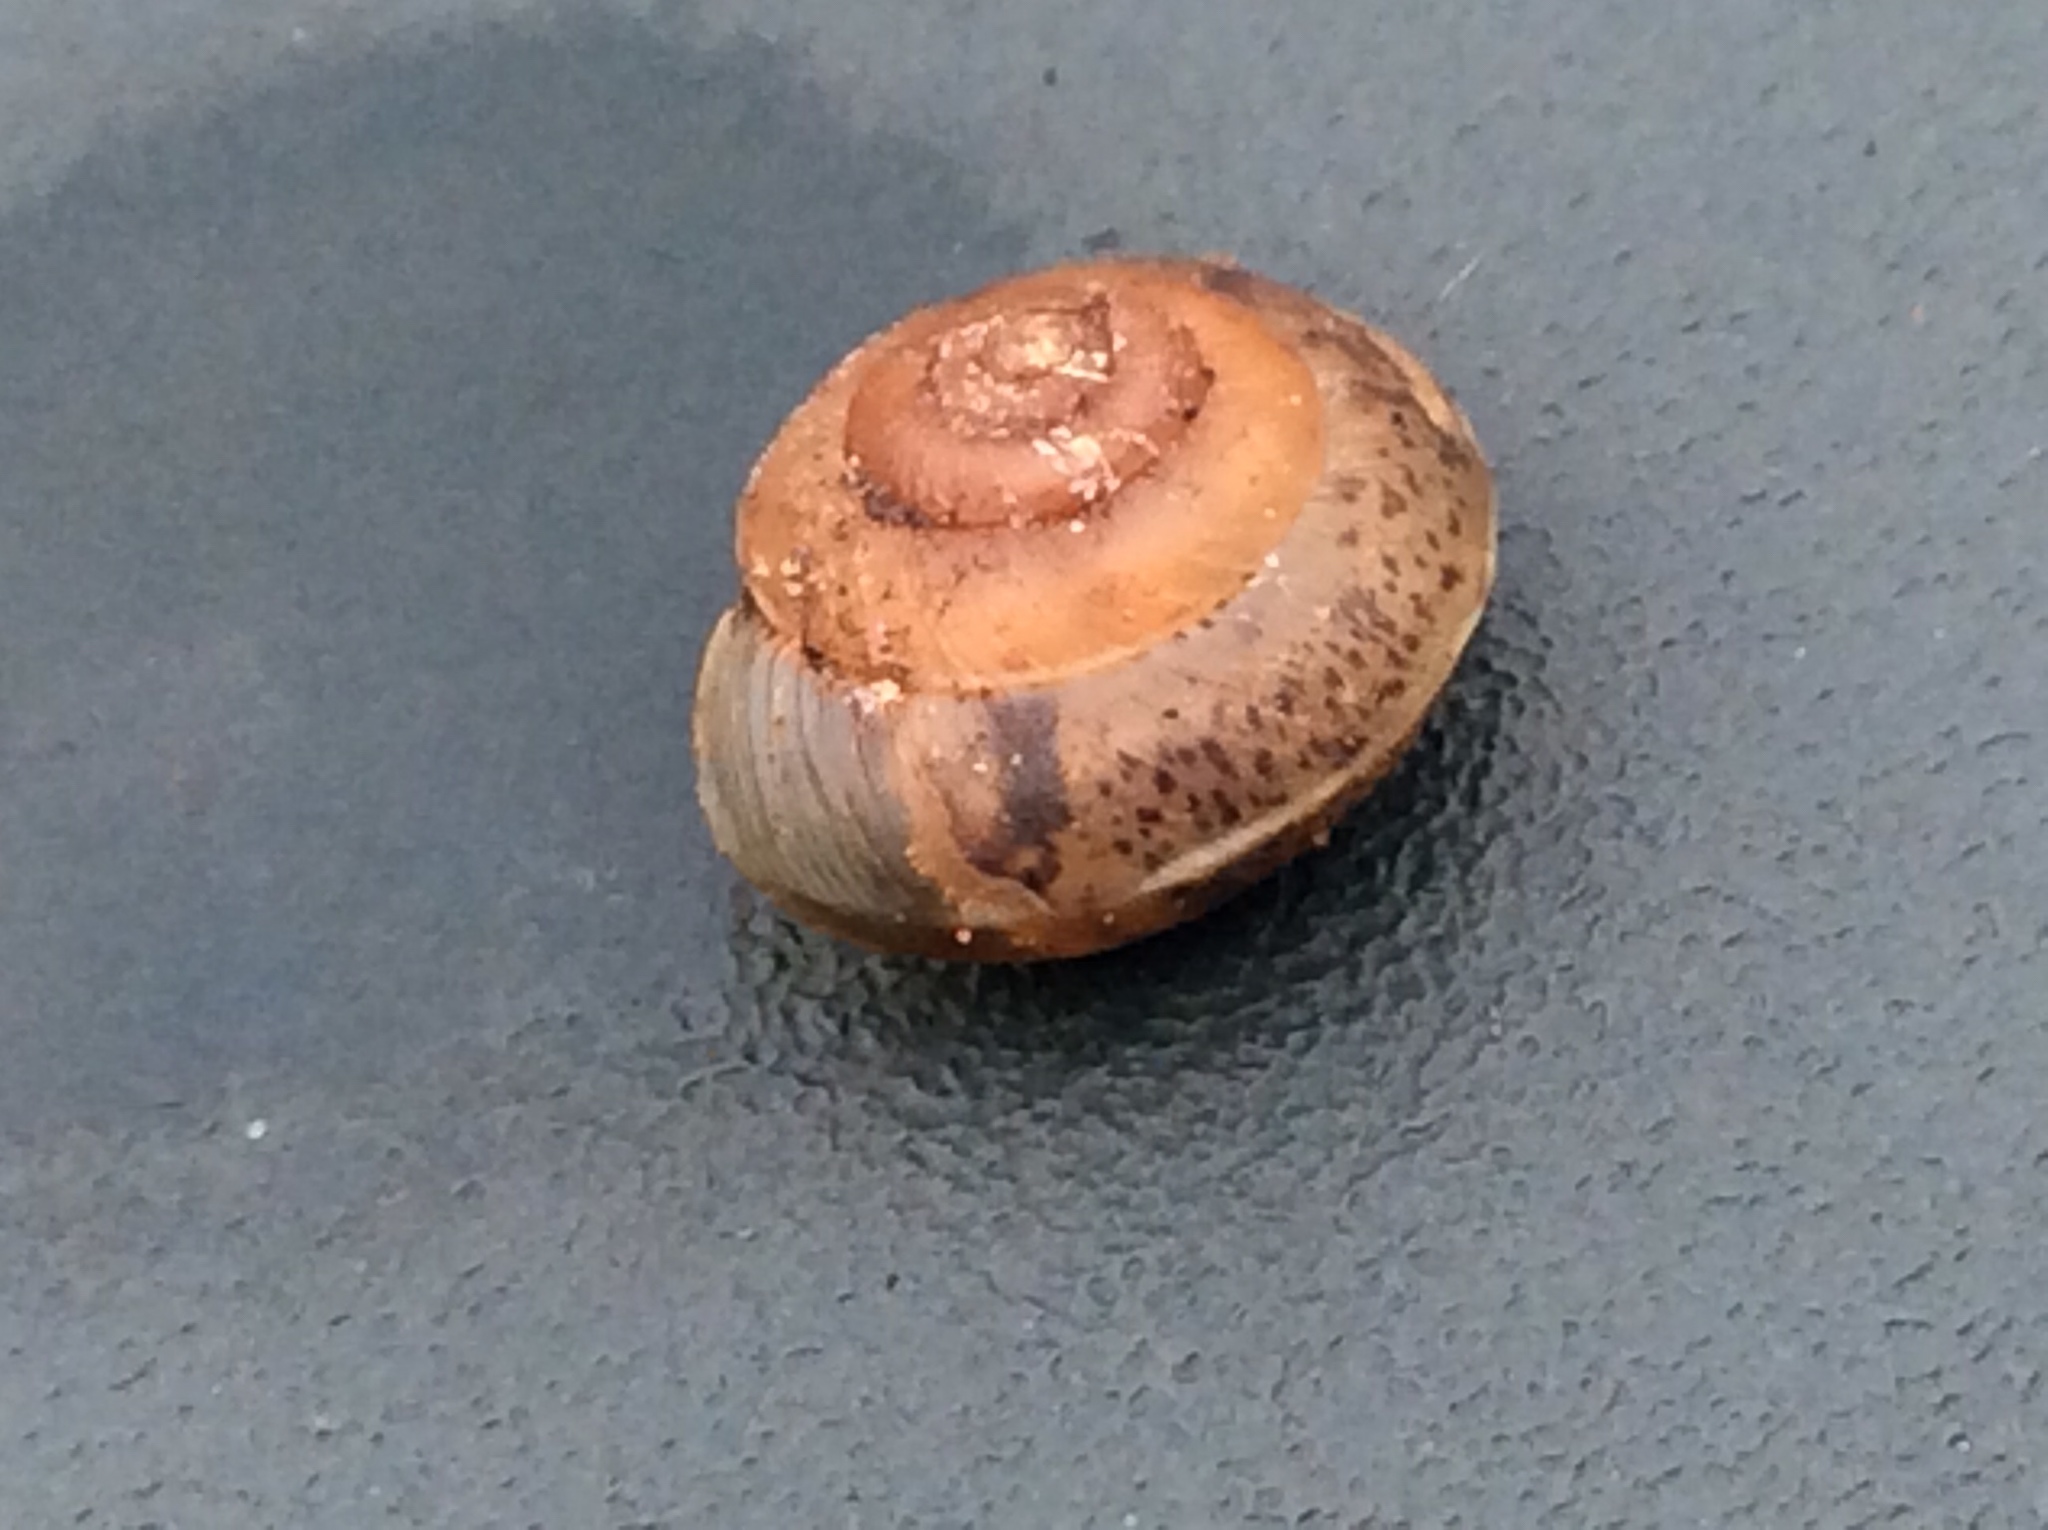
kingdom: Animalia
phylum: Mollusca
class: Gastropoda
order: Stylommatophora
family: Hygromiidae
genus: Hygromia
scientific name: Hygromia cinctella
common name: Girdled snail
